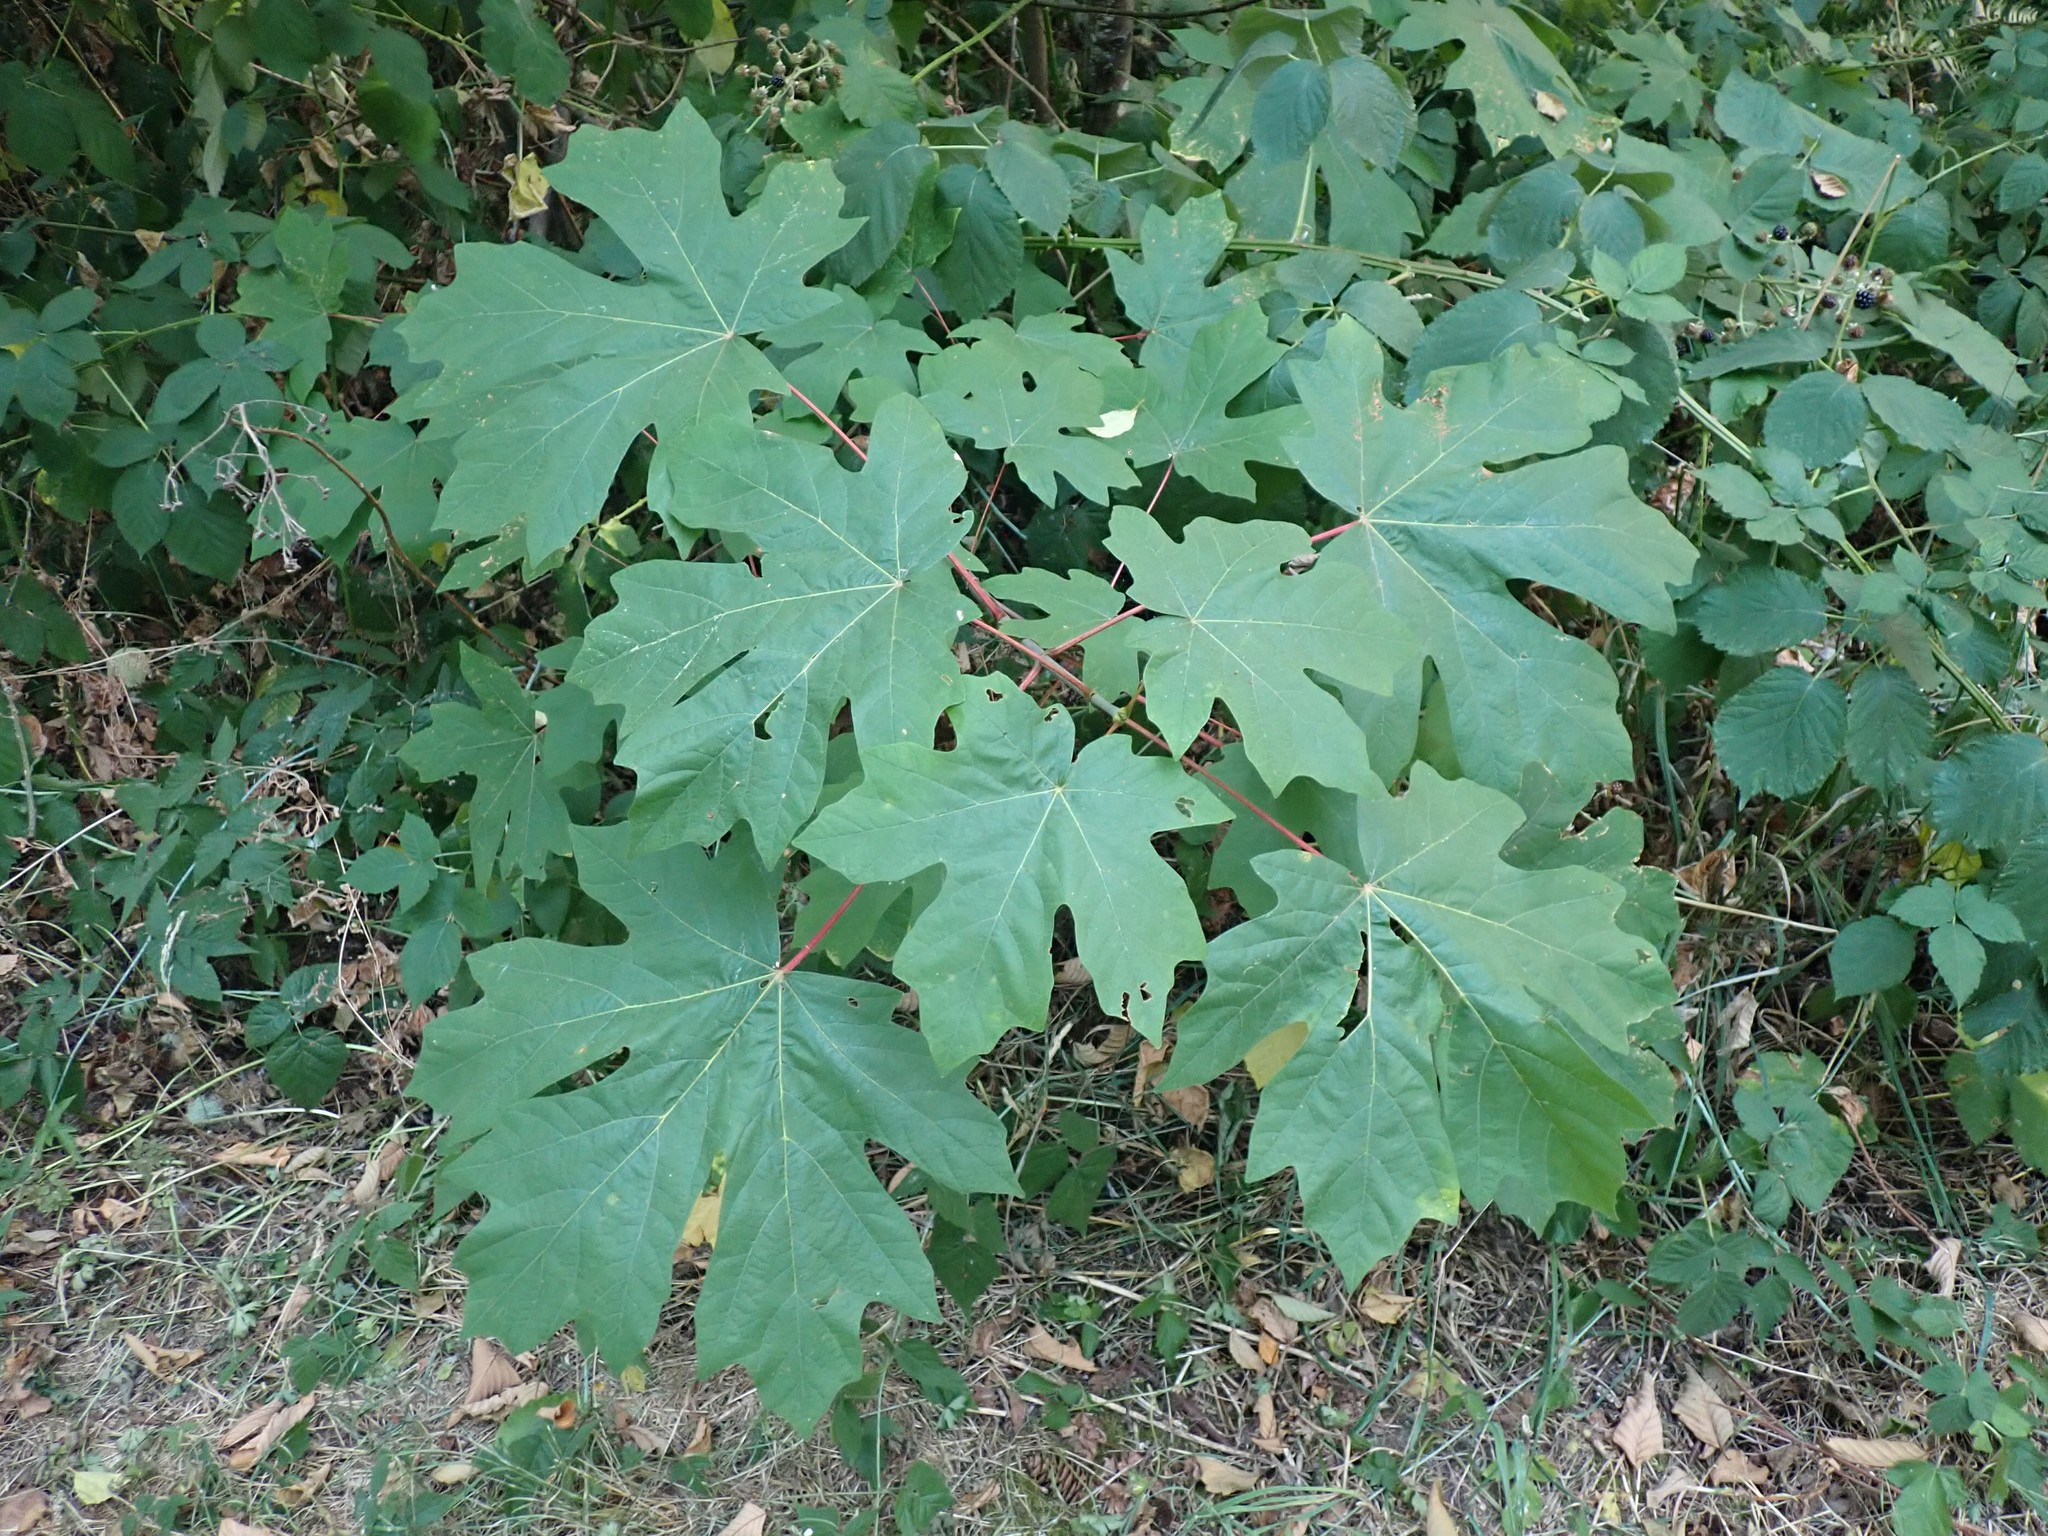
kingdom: Plantae
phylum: Tracheophyta
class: Magnoliopsida
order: Sapindales
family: Sapindaceae
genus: Acer
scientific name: Acer macrophyllum
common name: Oregon maple
